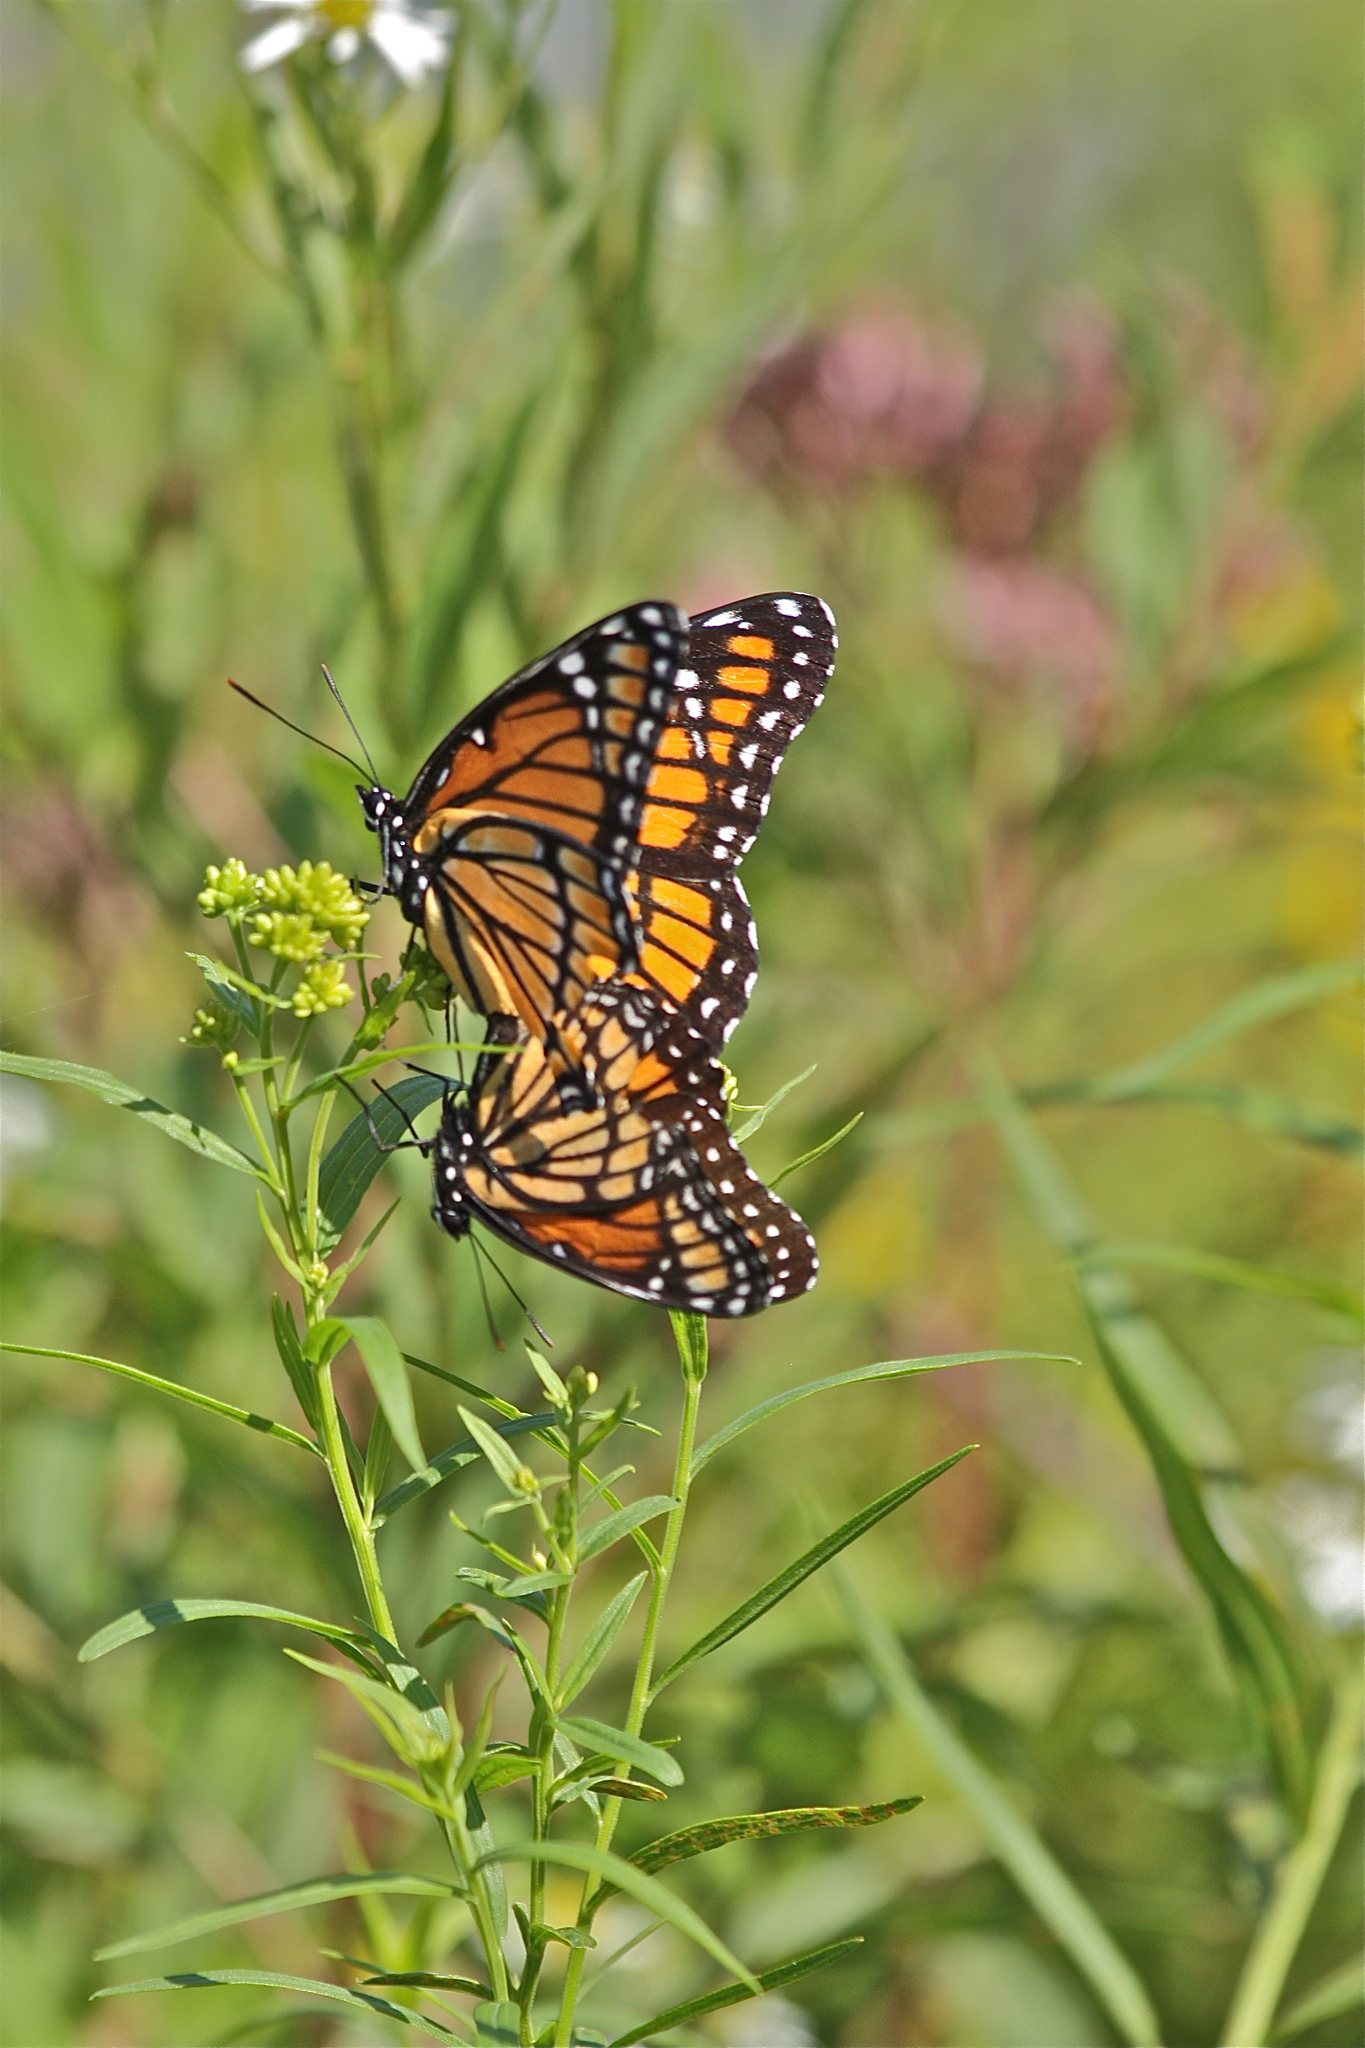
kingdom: Animalia
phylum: Arthropoda
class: Insecta
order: Lepidoptera
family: Nymphalidae
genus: Limenitis
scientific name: Limenitis archippus
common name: Viceroy
